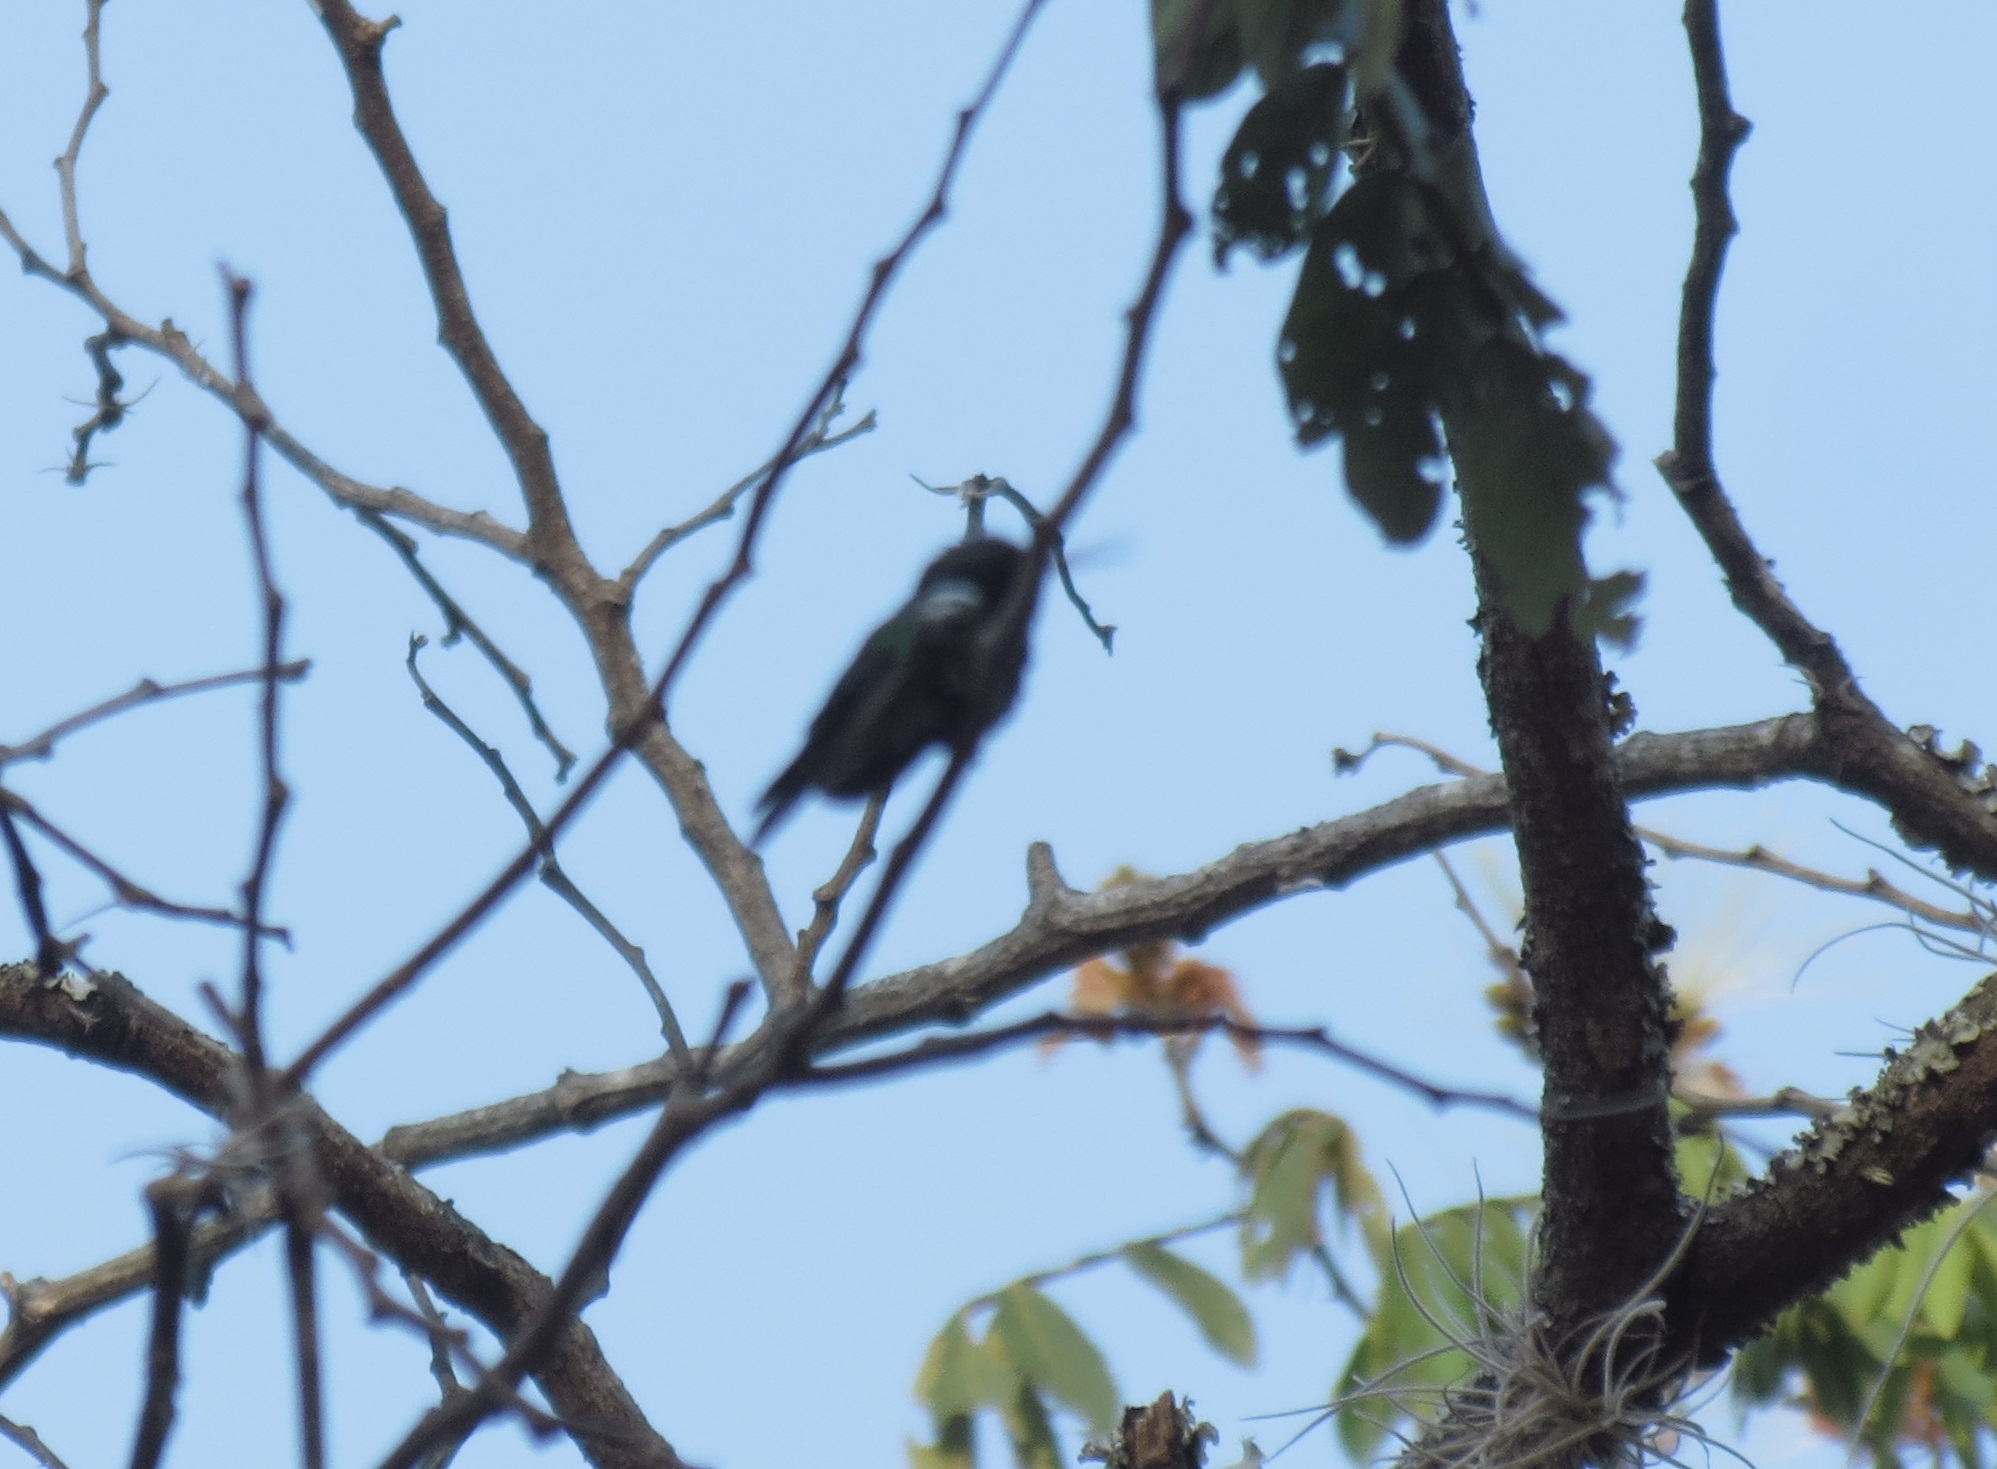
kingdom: Animalia
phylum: Chordata
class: Aves
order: Apodiformes
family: Trochilidae
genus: Cynanthus
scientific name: Cynanthus canivetii
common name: Canivet's emerald
